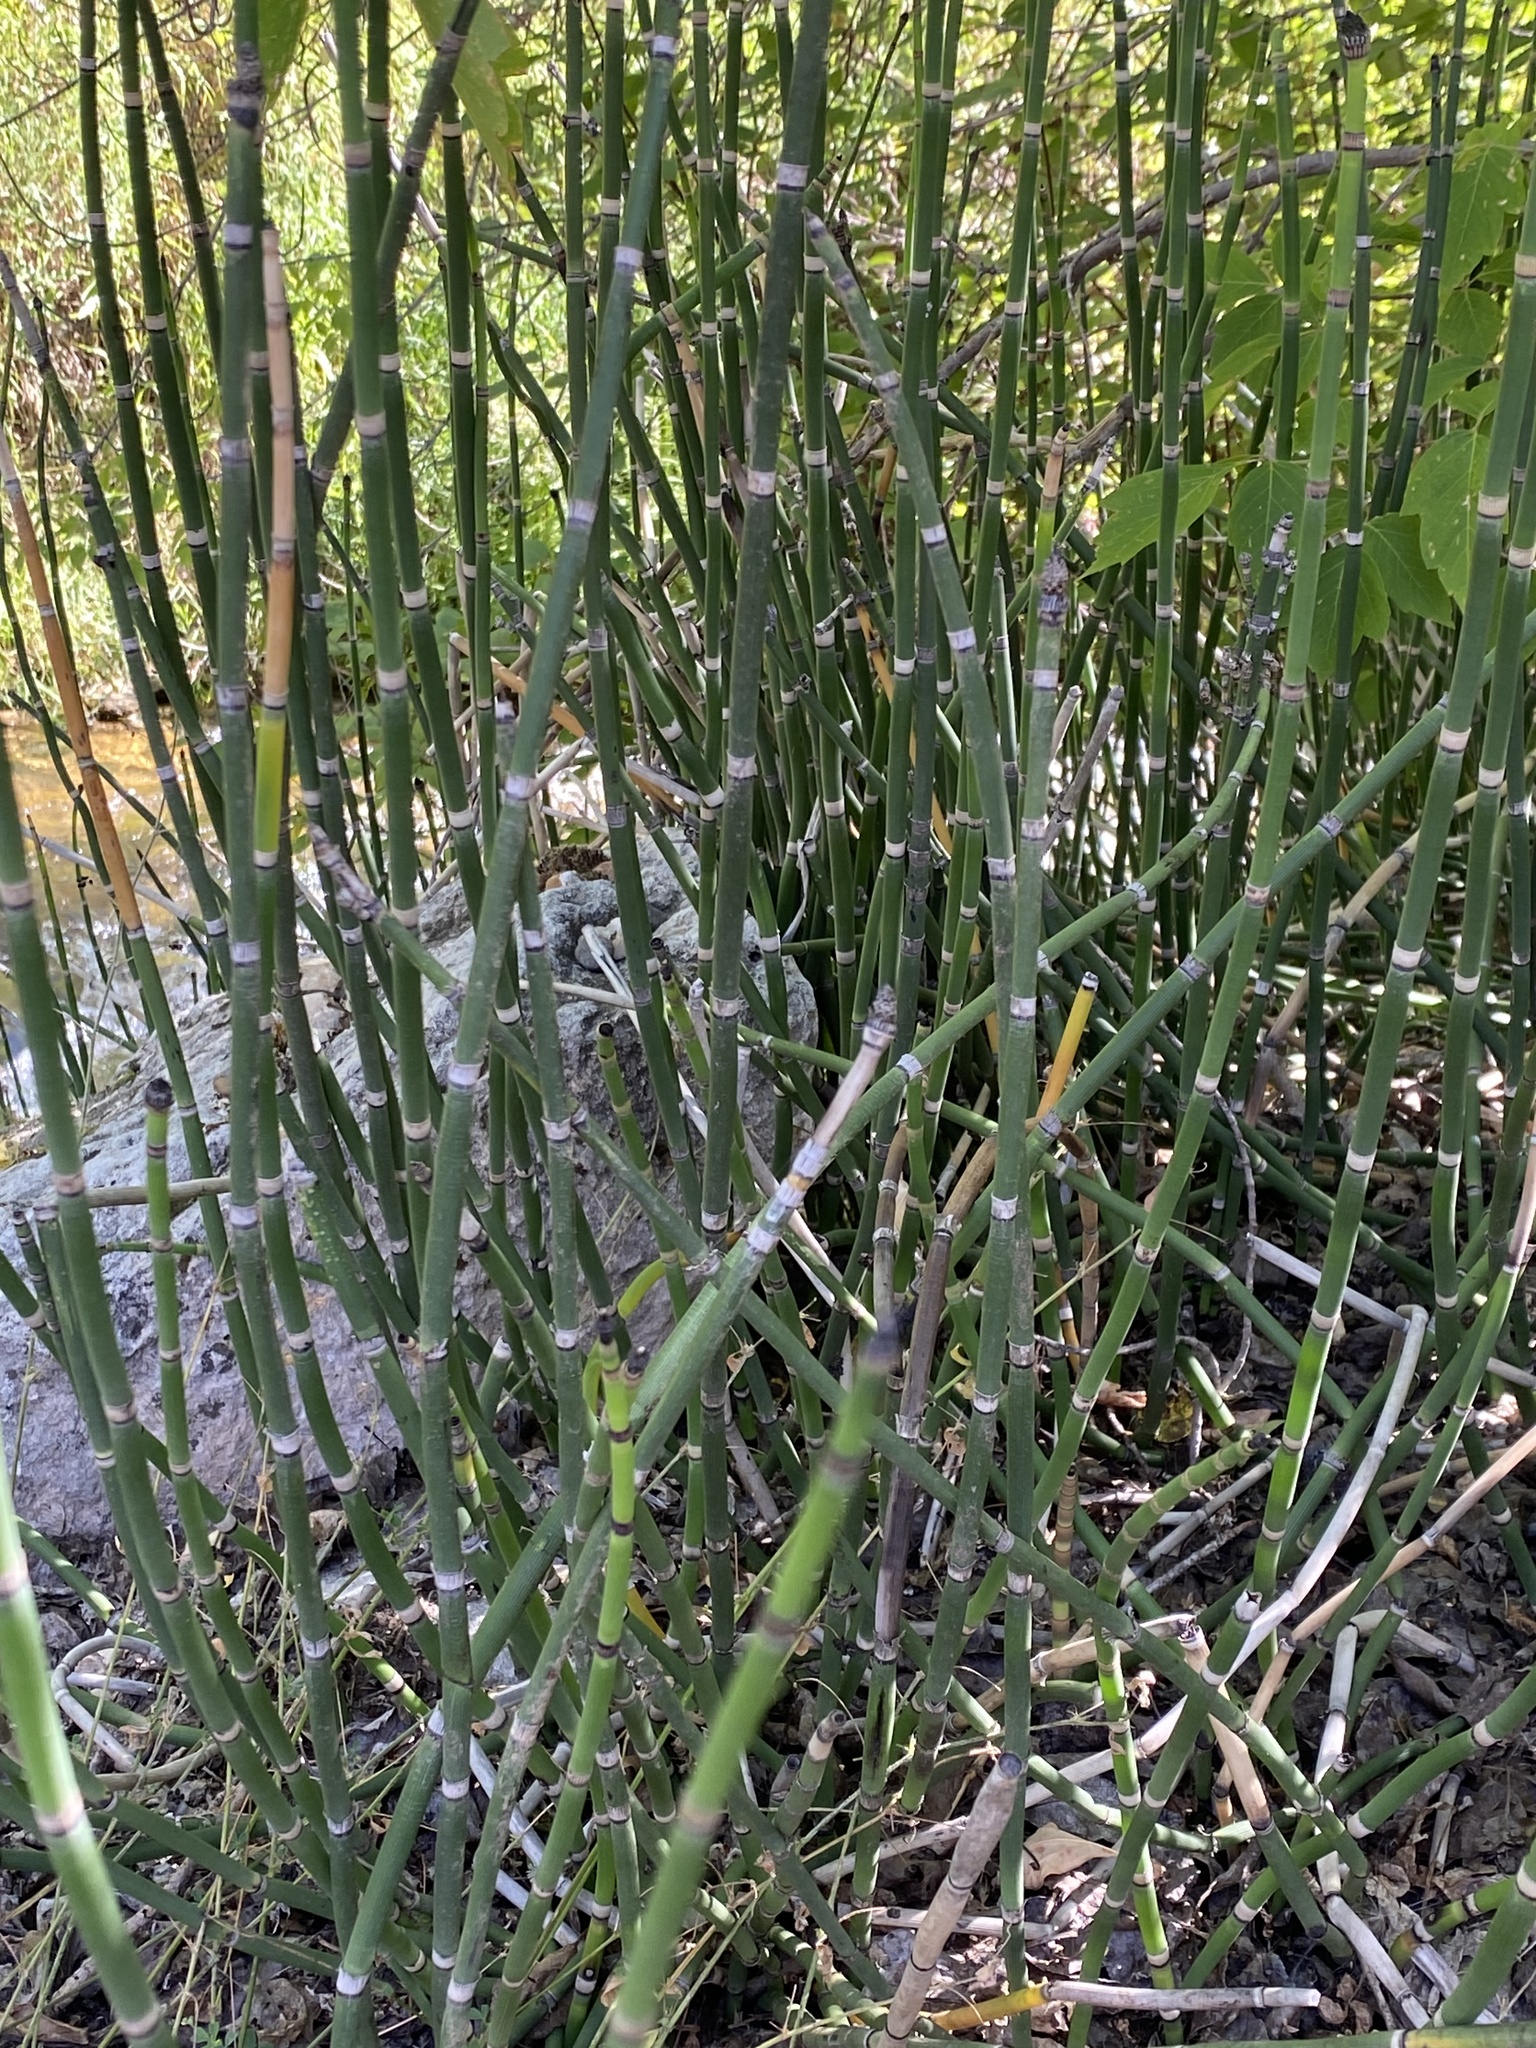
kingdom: Plantae
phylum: Tracheophyta
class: Polypodiopsida
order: Equisetales
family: Equisetaceae
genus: Equisetum
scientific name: Equisetum hyemale
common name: Rough horsetail
